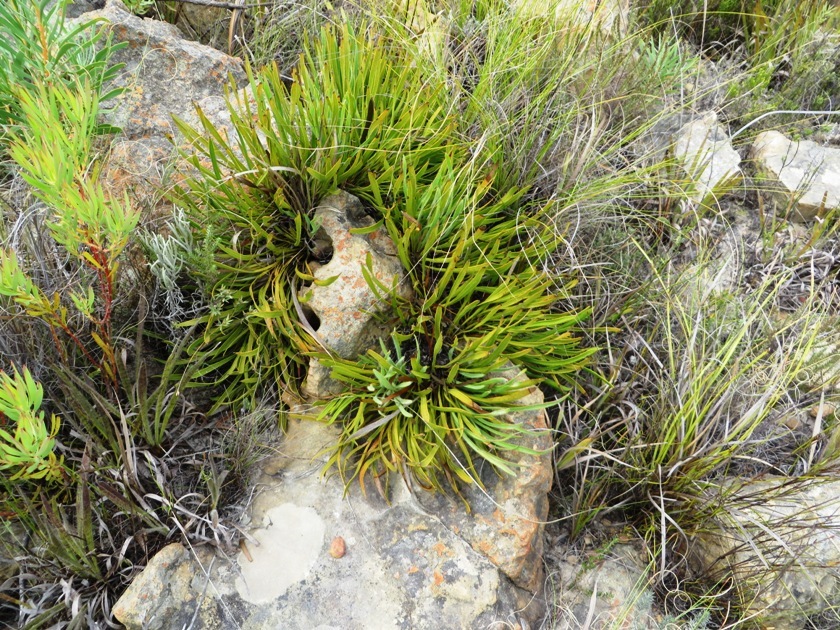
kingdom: Plantae
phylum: Tracheophyta
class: Magnoliopsida
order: Proteales
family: Proteaceae
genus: Protea
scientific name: Protea scabra
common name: Sandpaper-leaf sugarbush
